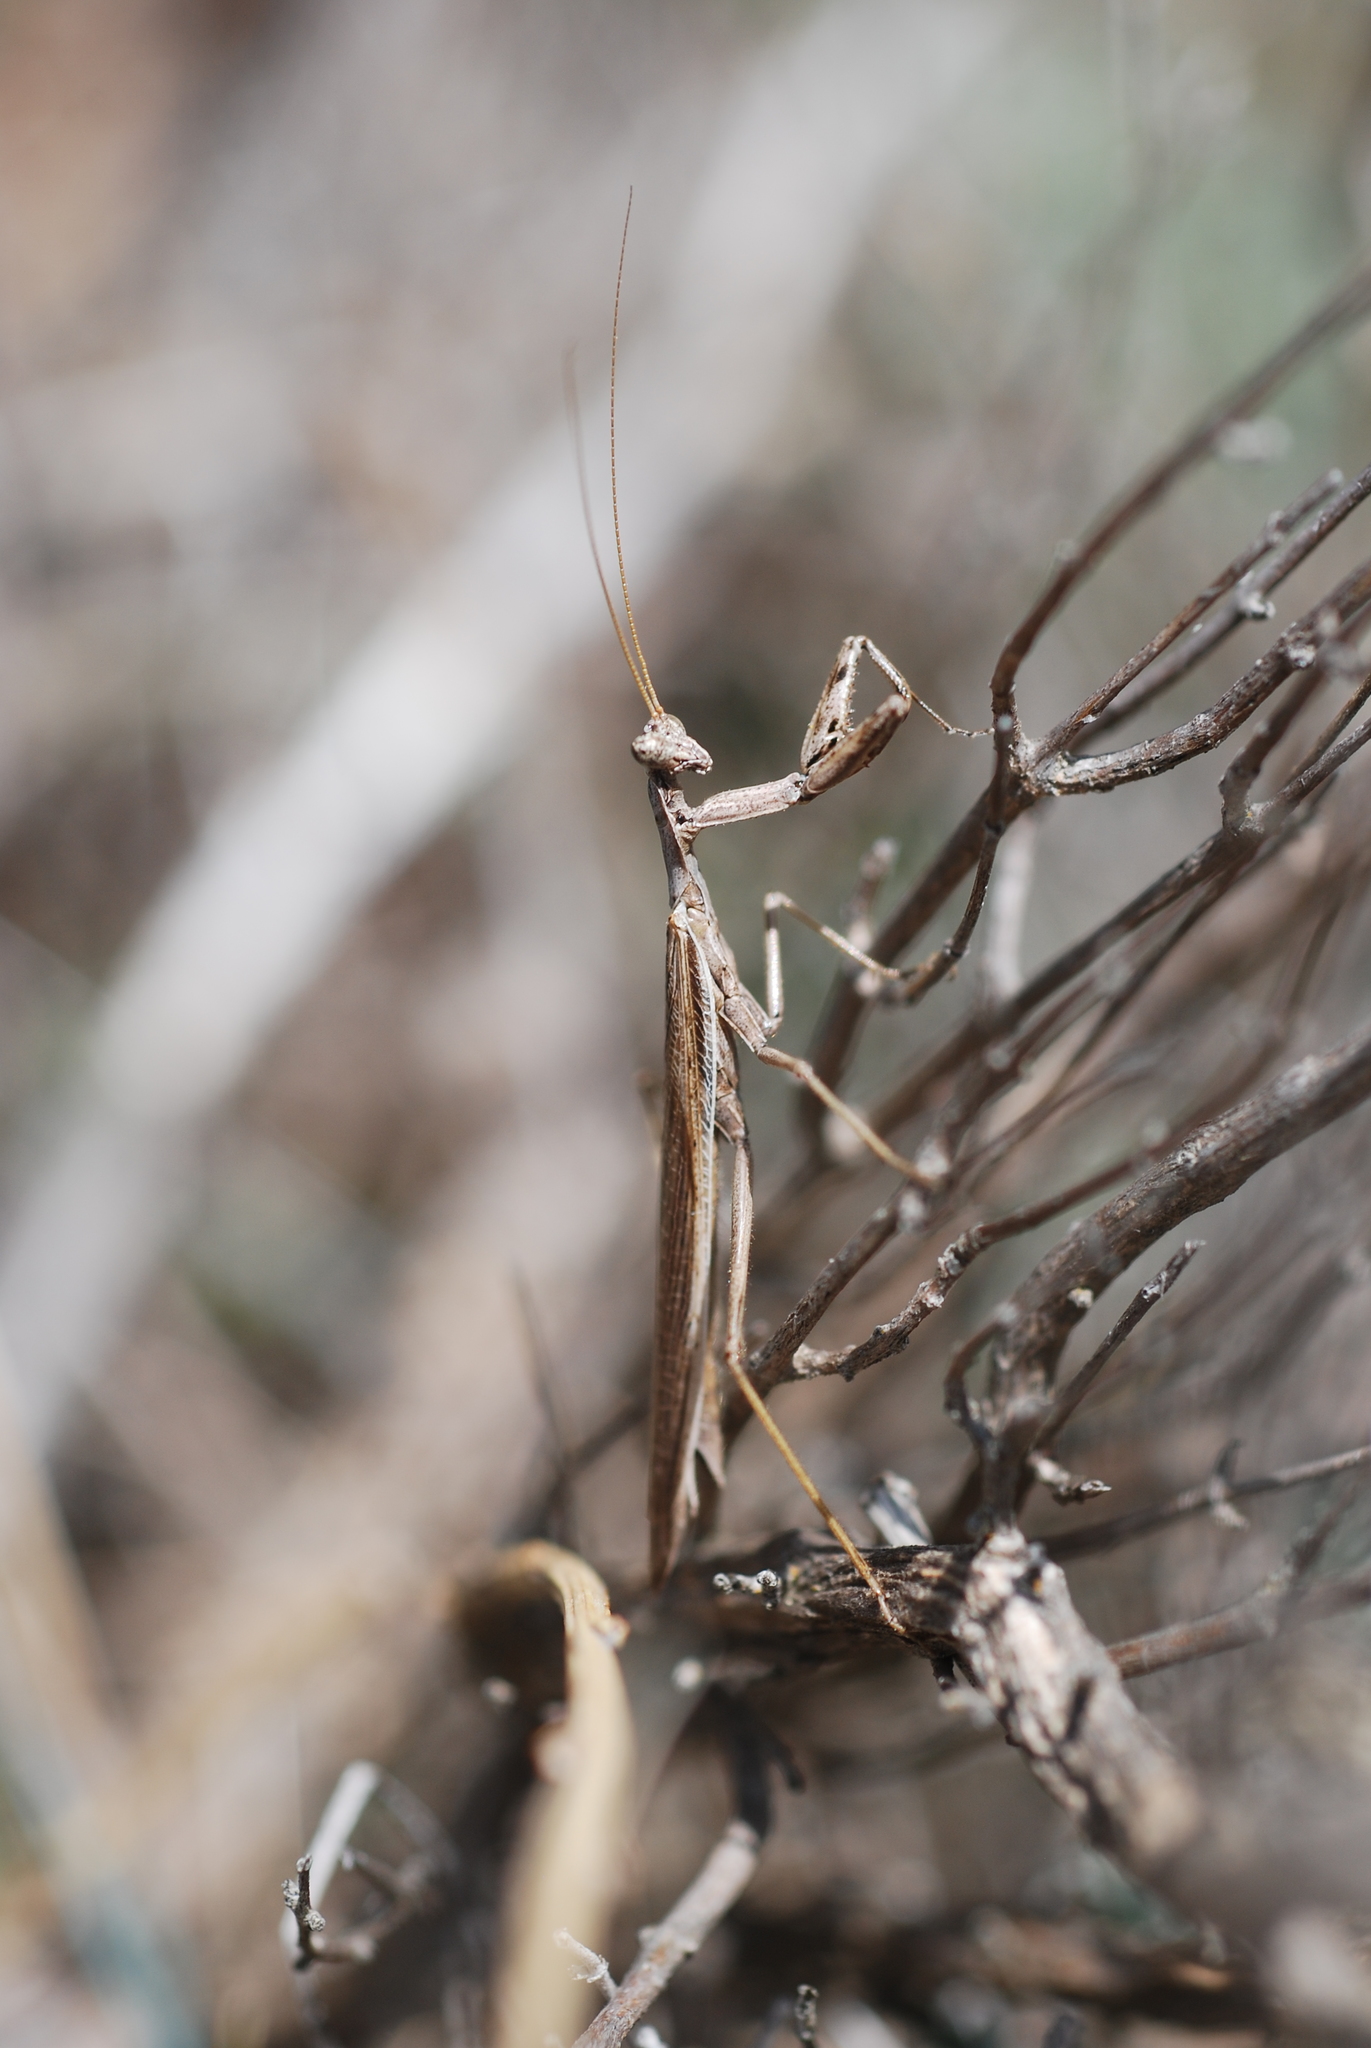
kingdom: Animalia
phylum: Arthropoda
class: Insecta
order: Mantodea
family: Amelidae
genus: Ameles
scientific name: Ameles decolor
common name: Dwarf mantis
